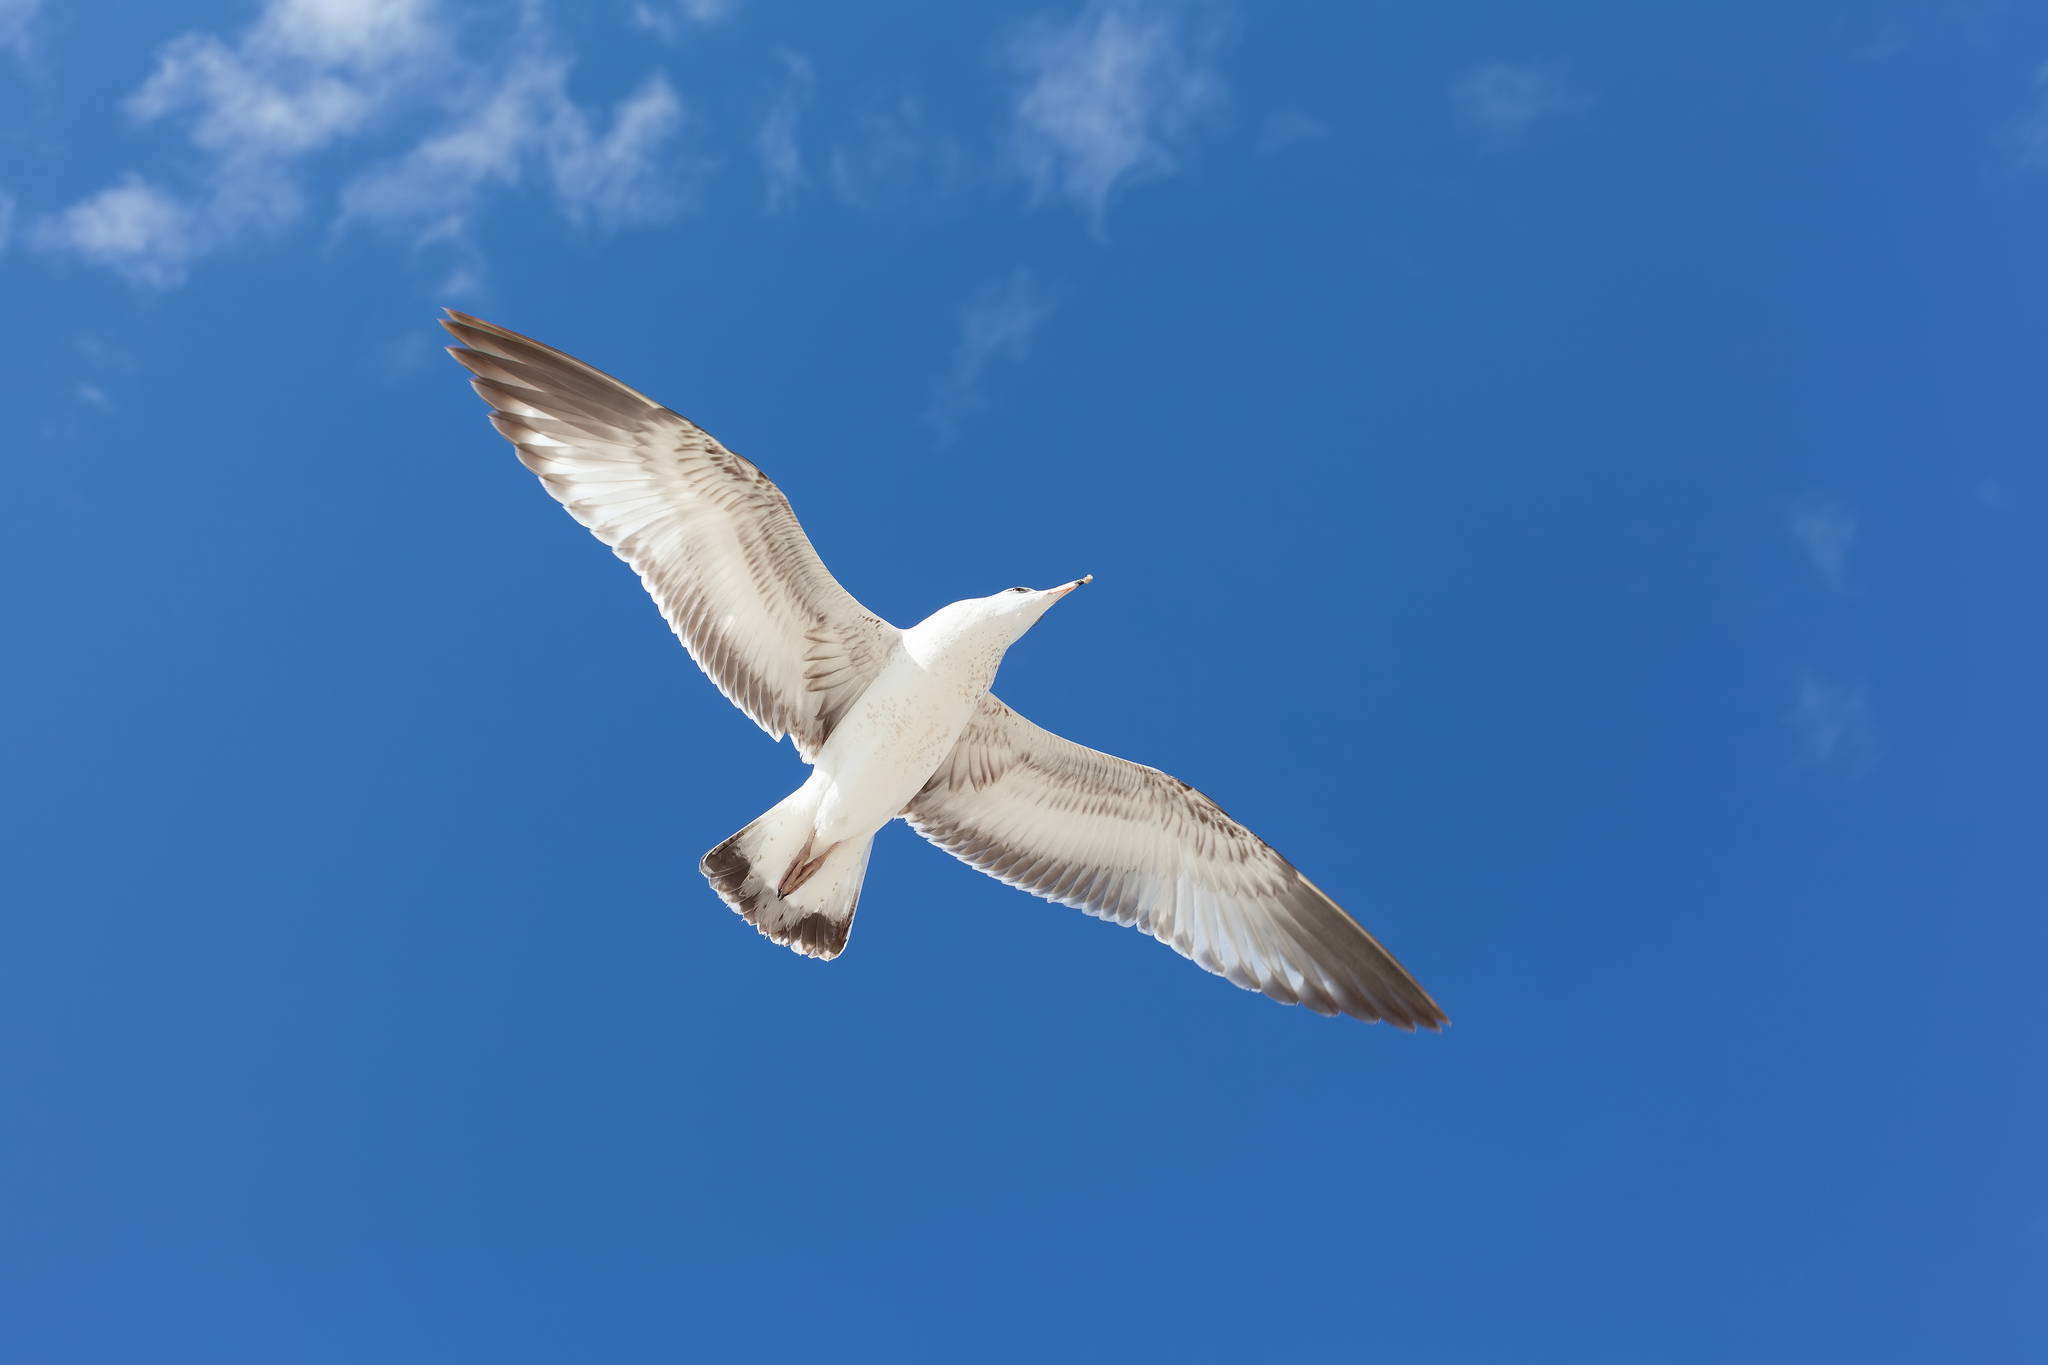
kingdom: Animalia
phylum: Chordata
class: Aves
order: Charadriiformes
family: Laridae
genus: Larus
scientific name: Larus delawarensis
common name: Ring-billed gull
